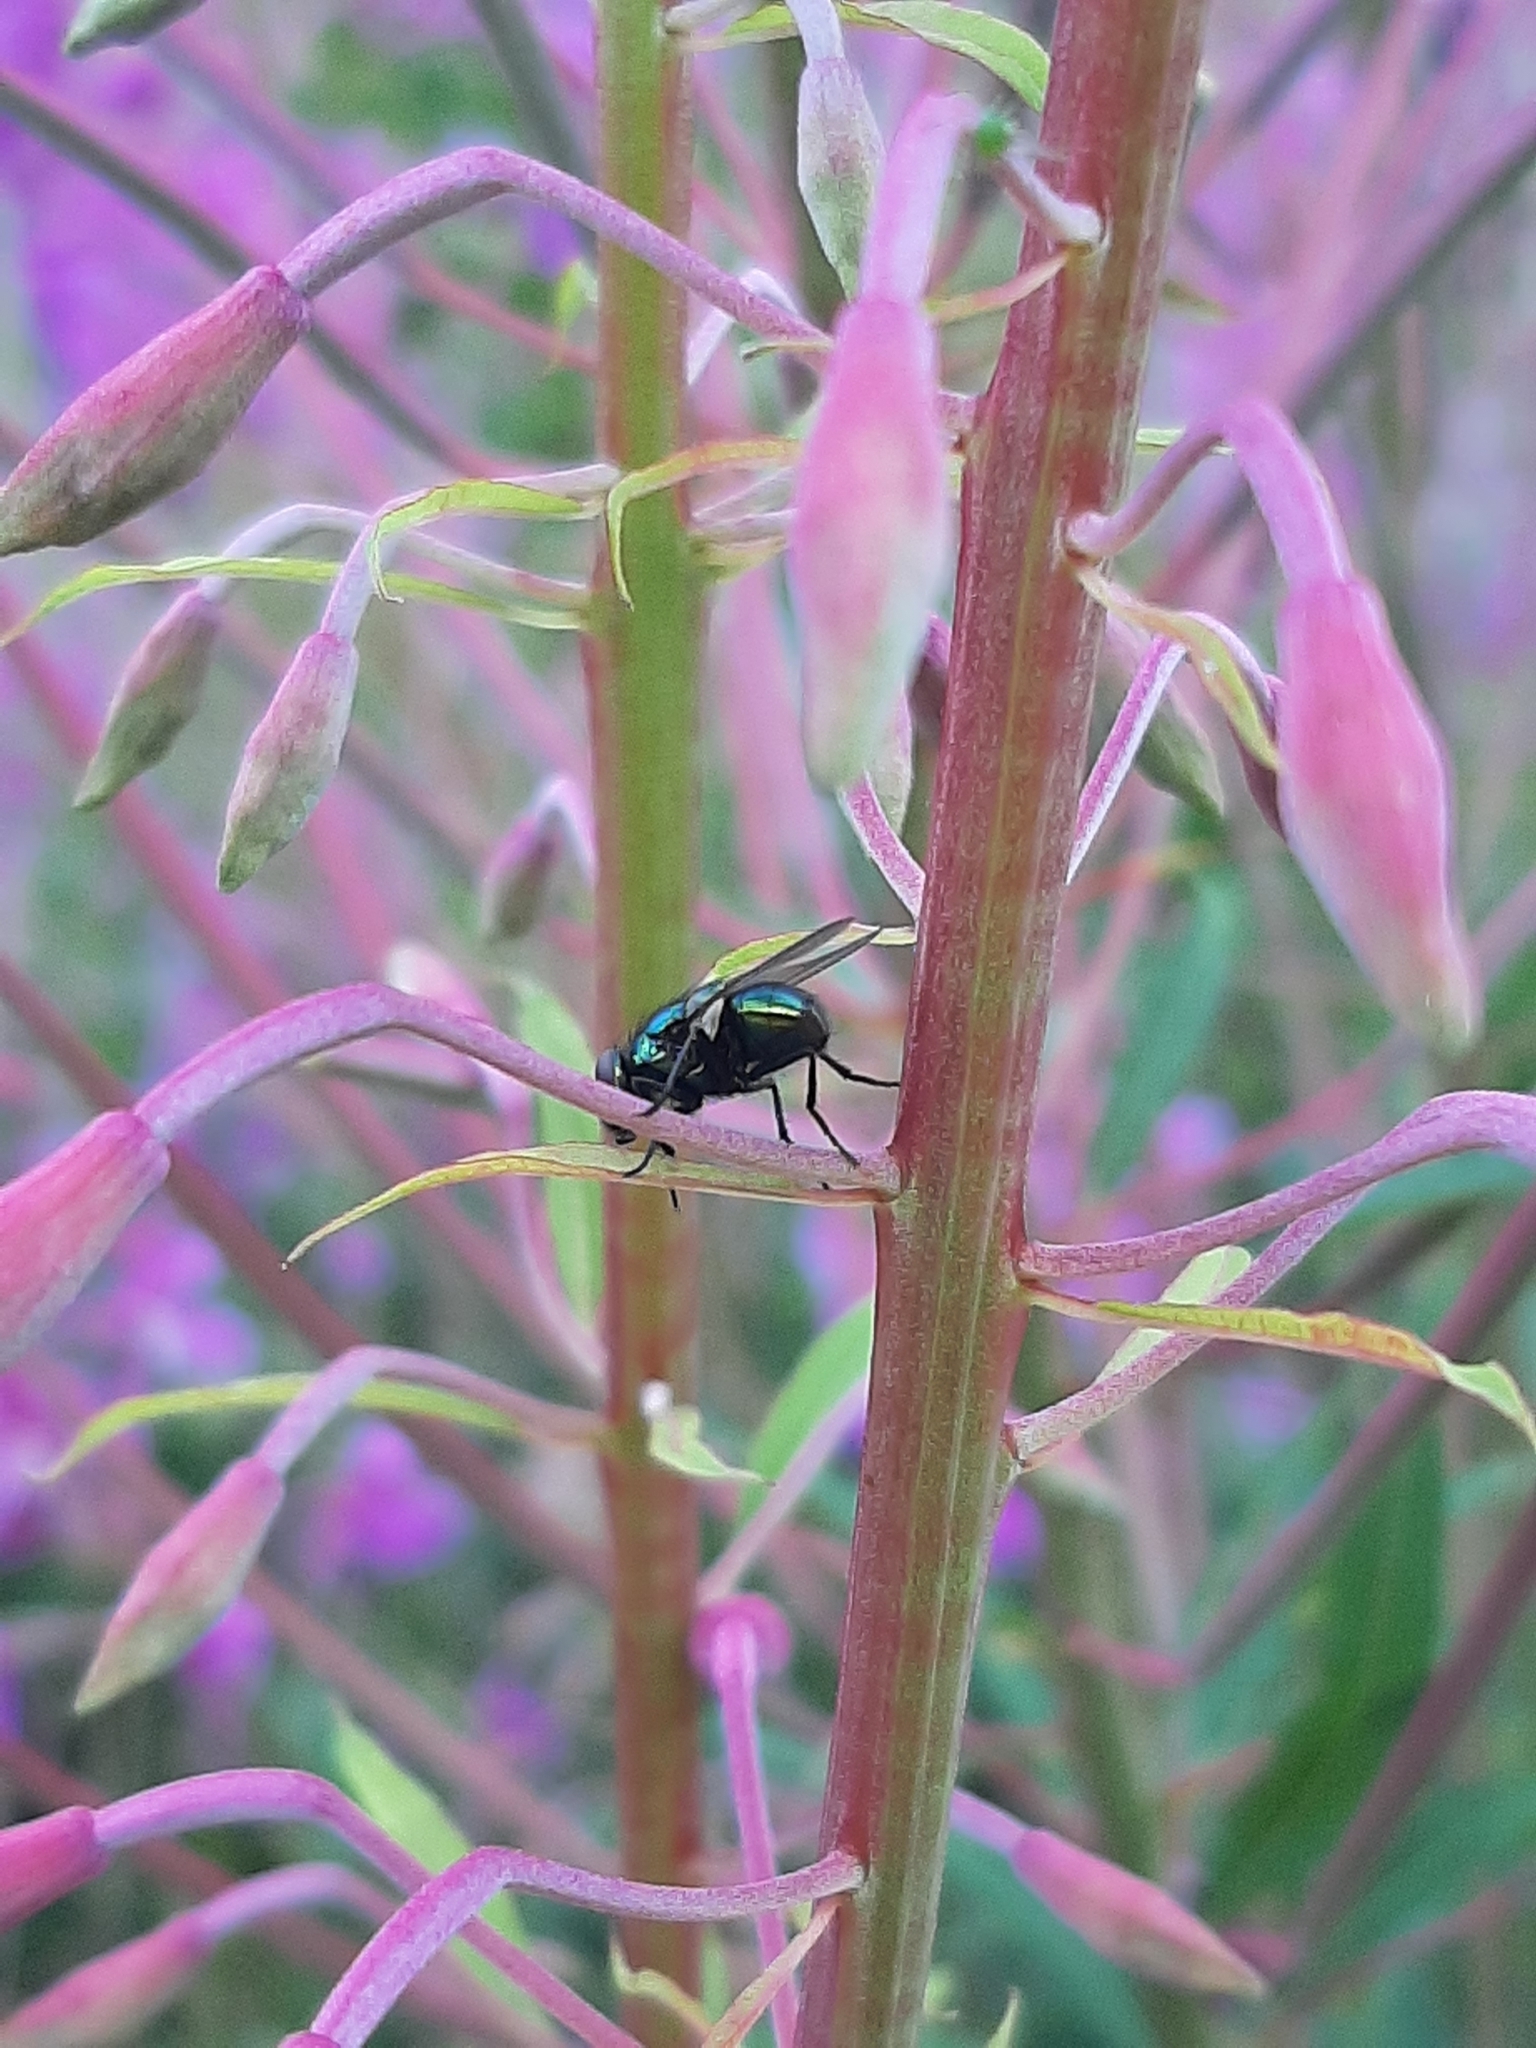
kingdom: Animalia
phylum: Arthropoda
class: Insecta
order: Diptera
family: Calliphoridae
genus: Lucilia
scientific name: Lucilia
